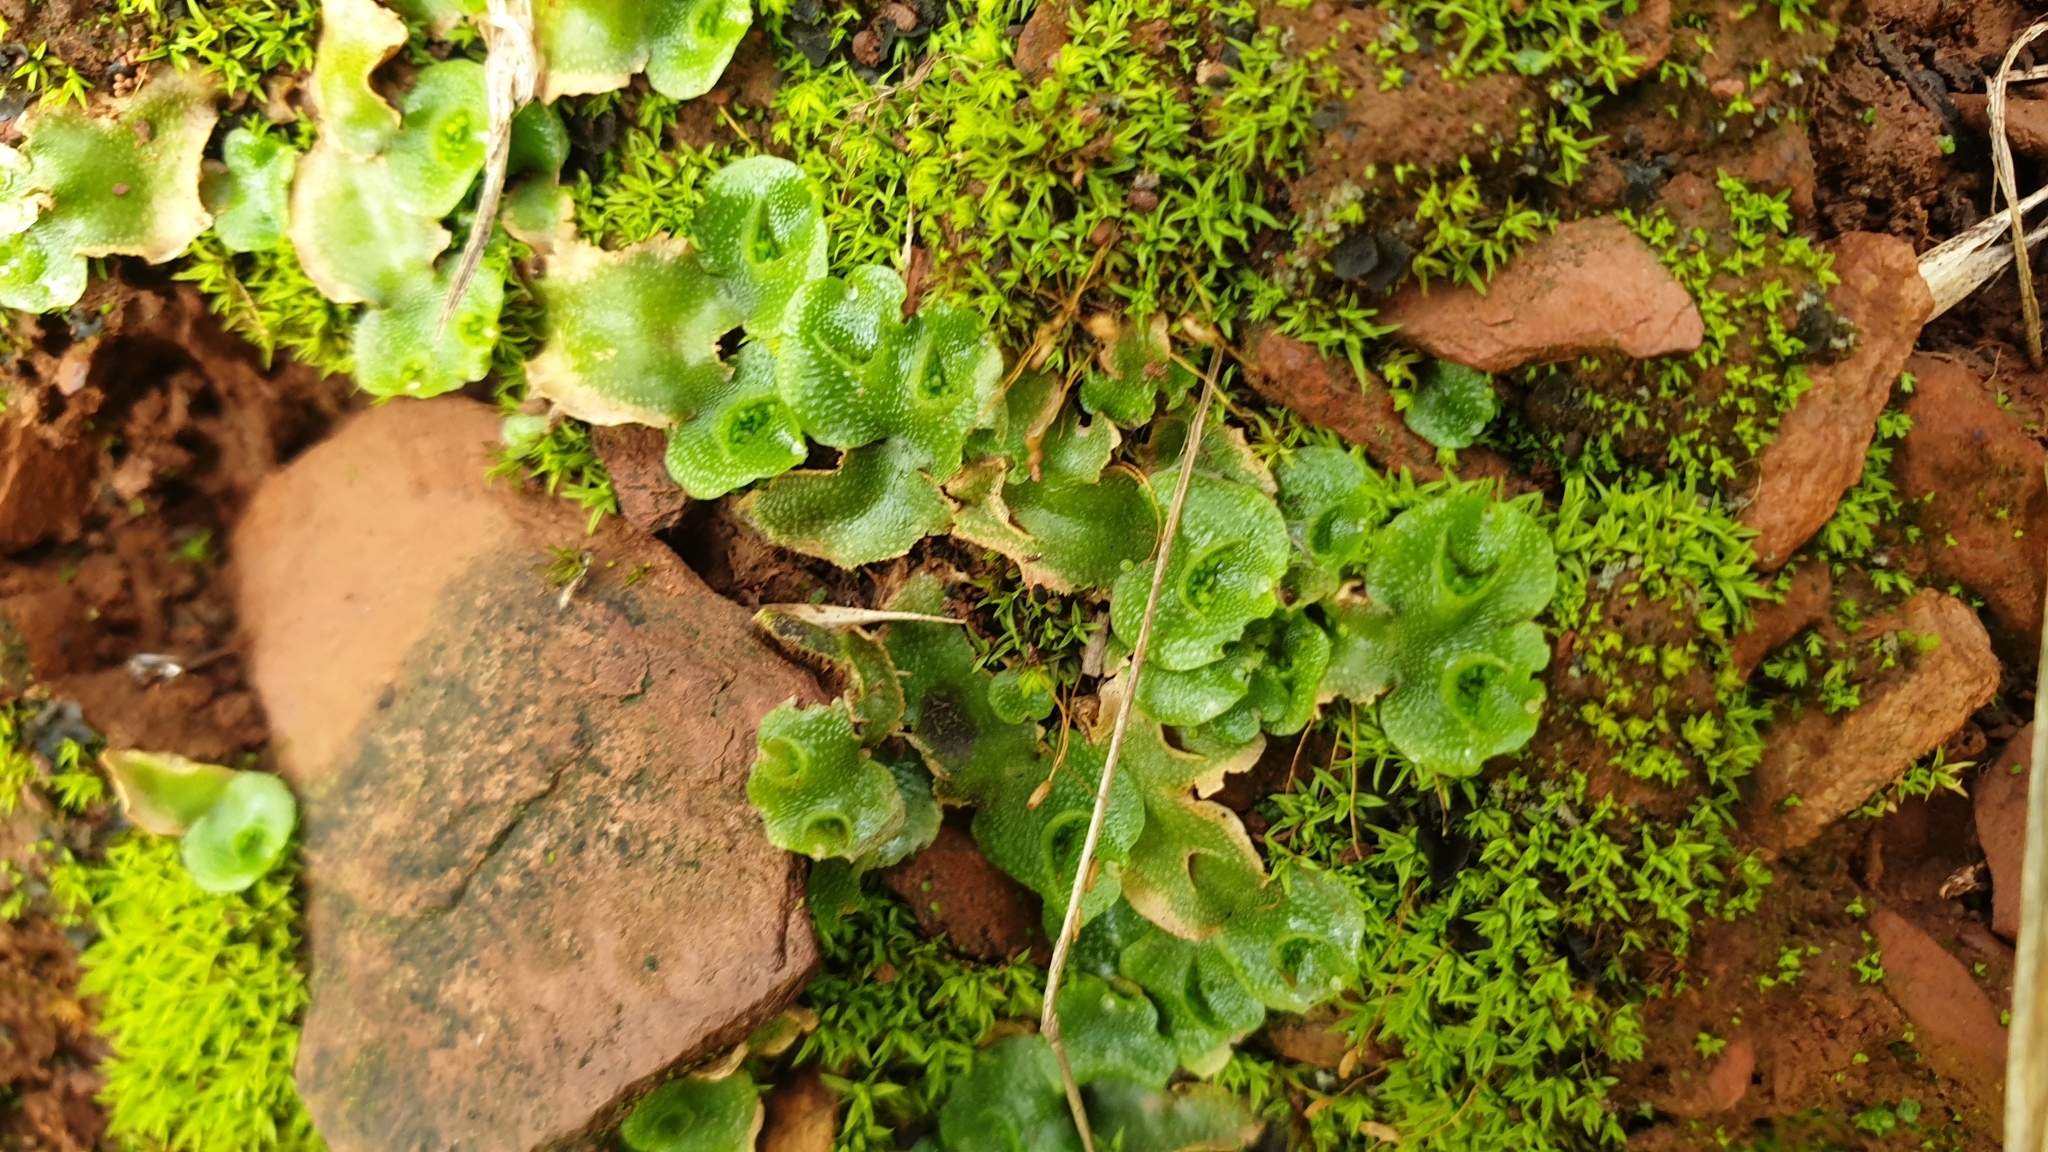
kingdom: Plantae
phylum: Marchantiophyta
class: Marchantiopsida
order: Lunulariales
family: Lunulariaceae
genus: Lunularia
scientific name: Lunularia cruciata
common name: Crescent-cup liverwort
